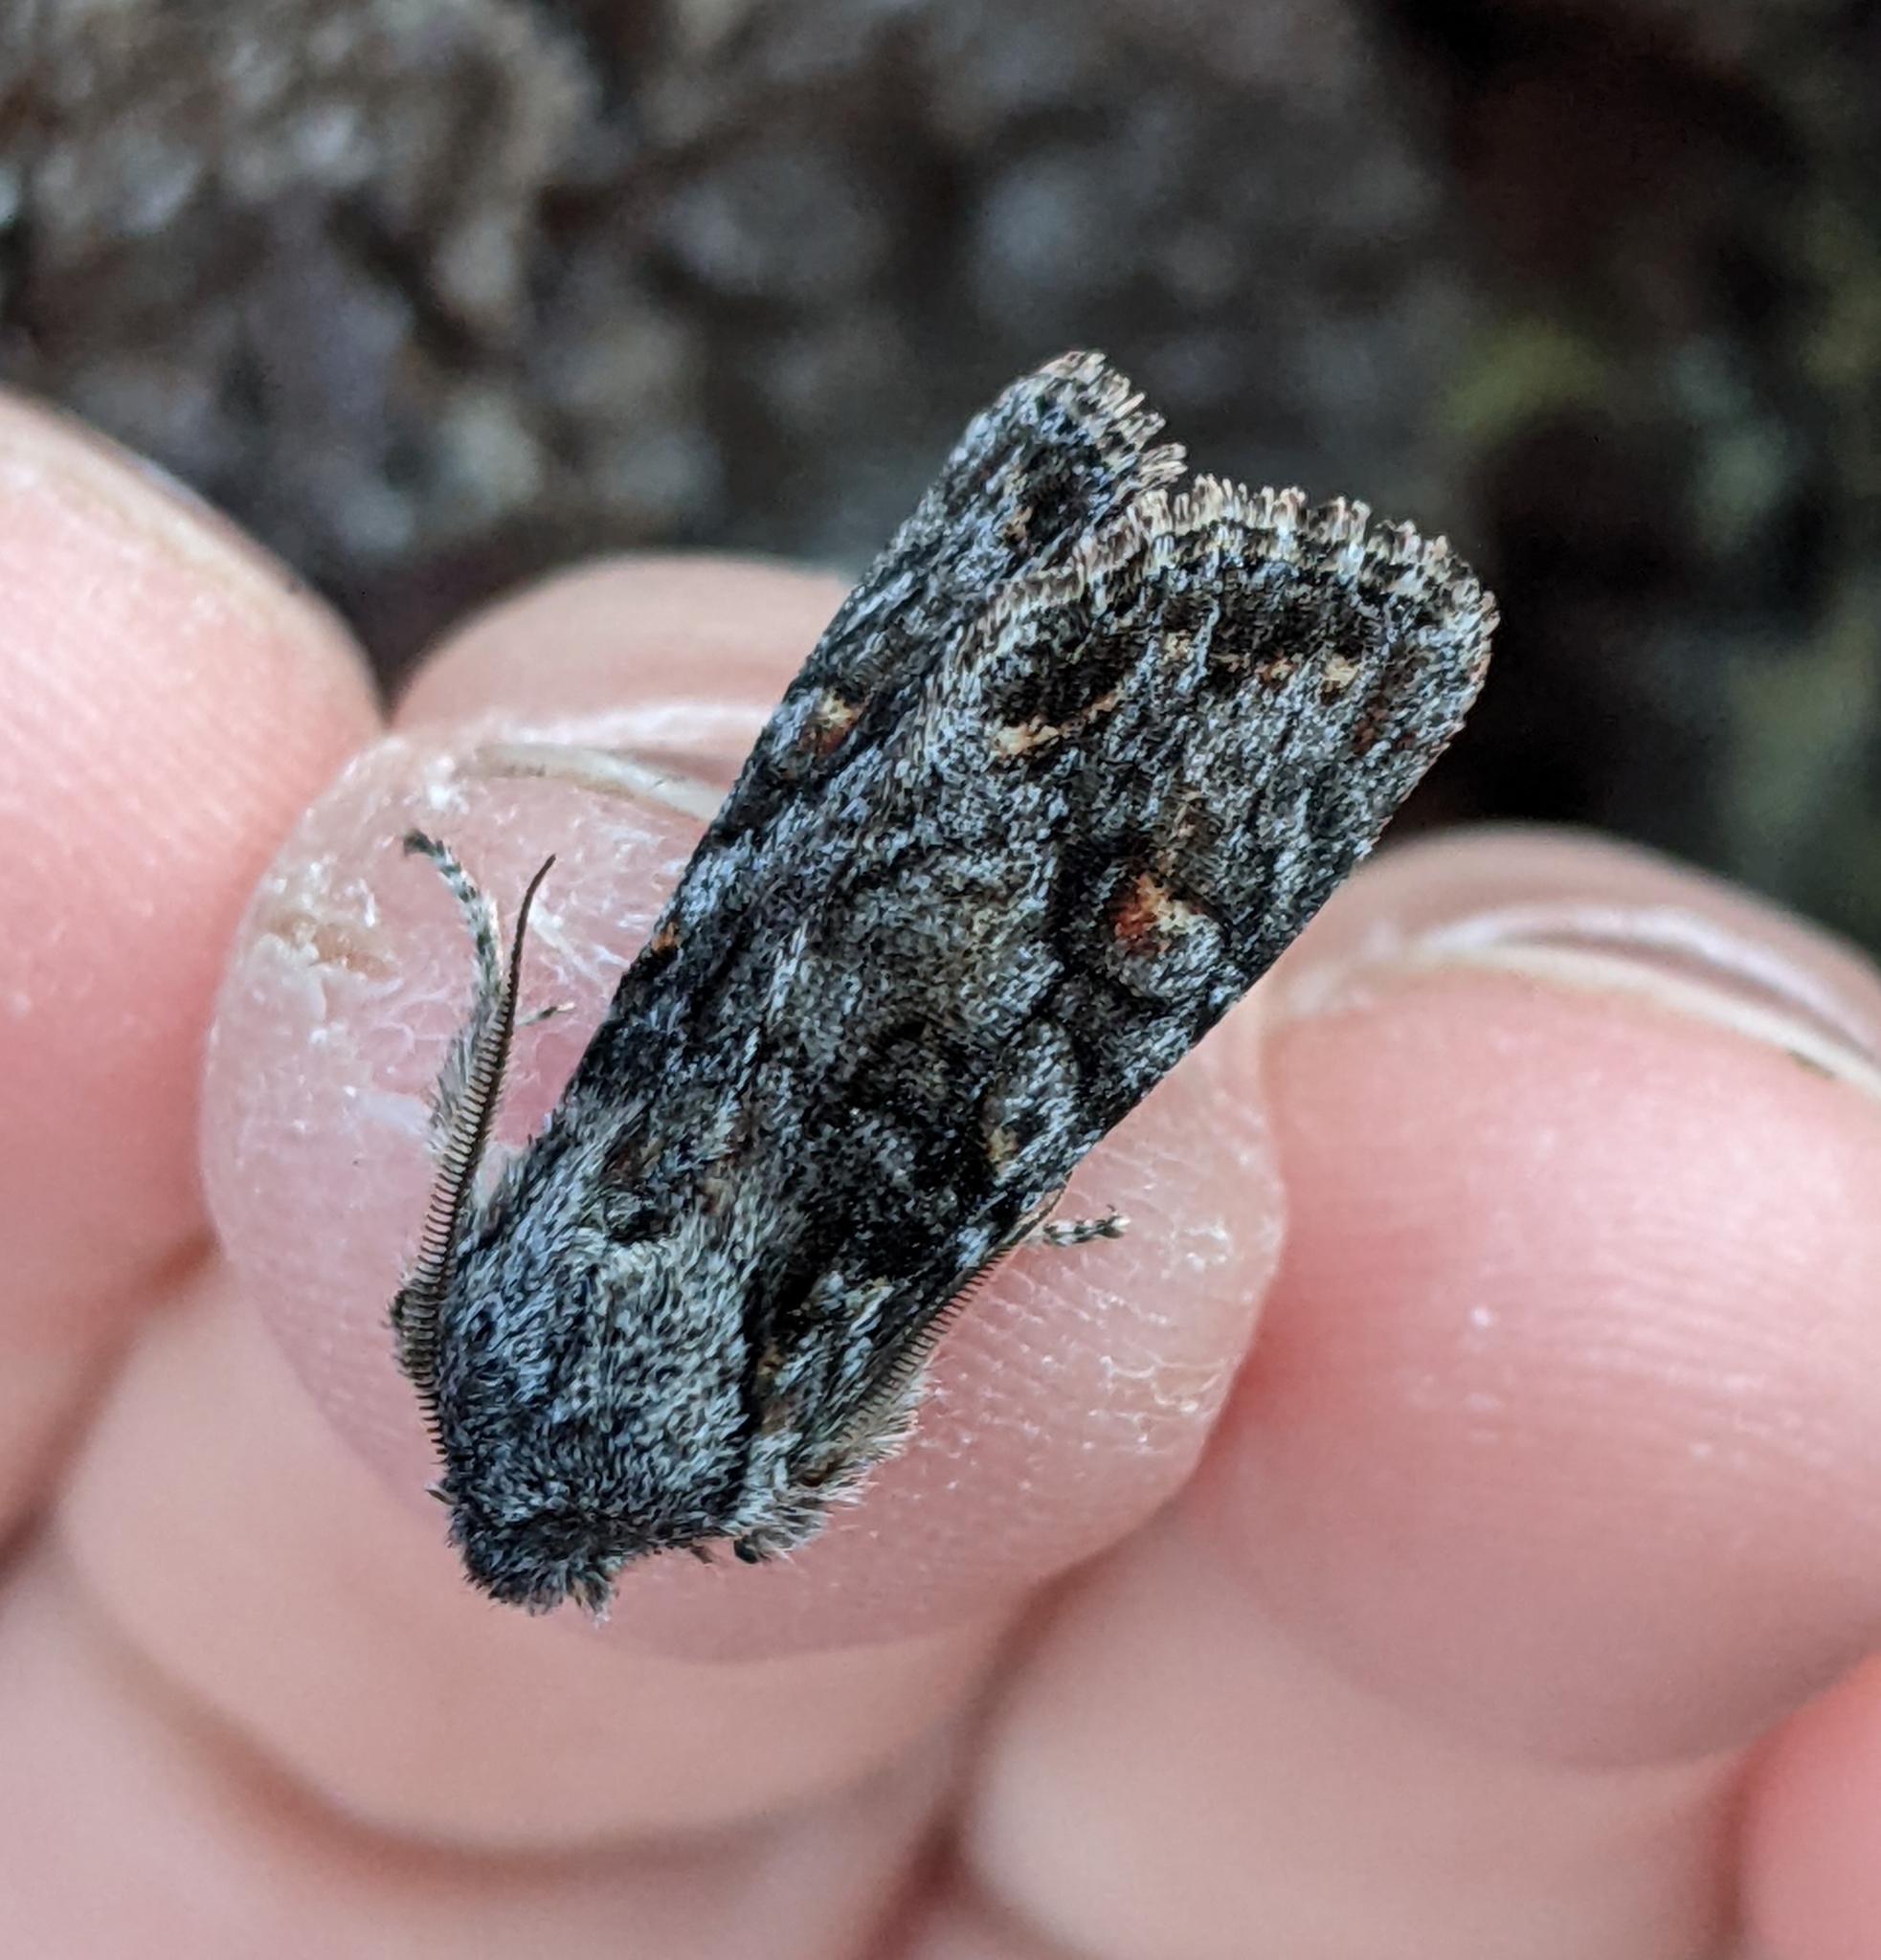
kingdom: Animalia
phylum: Arthropoda
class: Insecta
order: Lepidoptera
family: Noctuidae
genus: Egira
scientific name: Egira hiemalis
